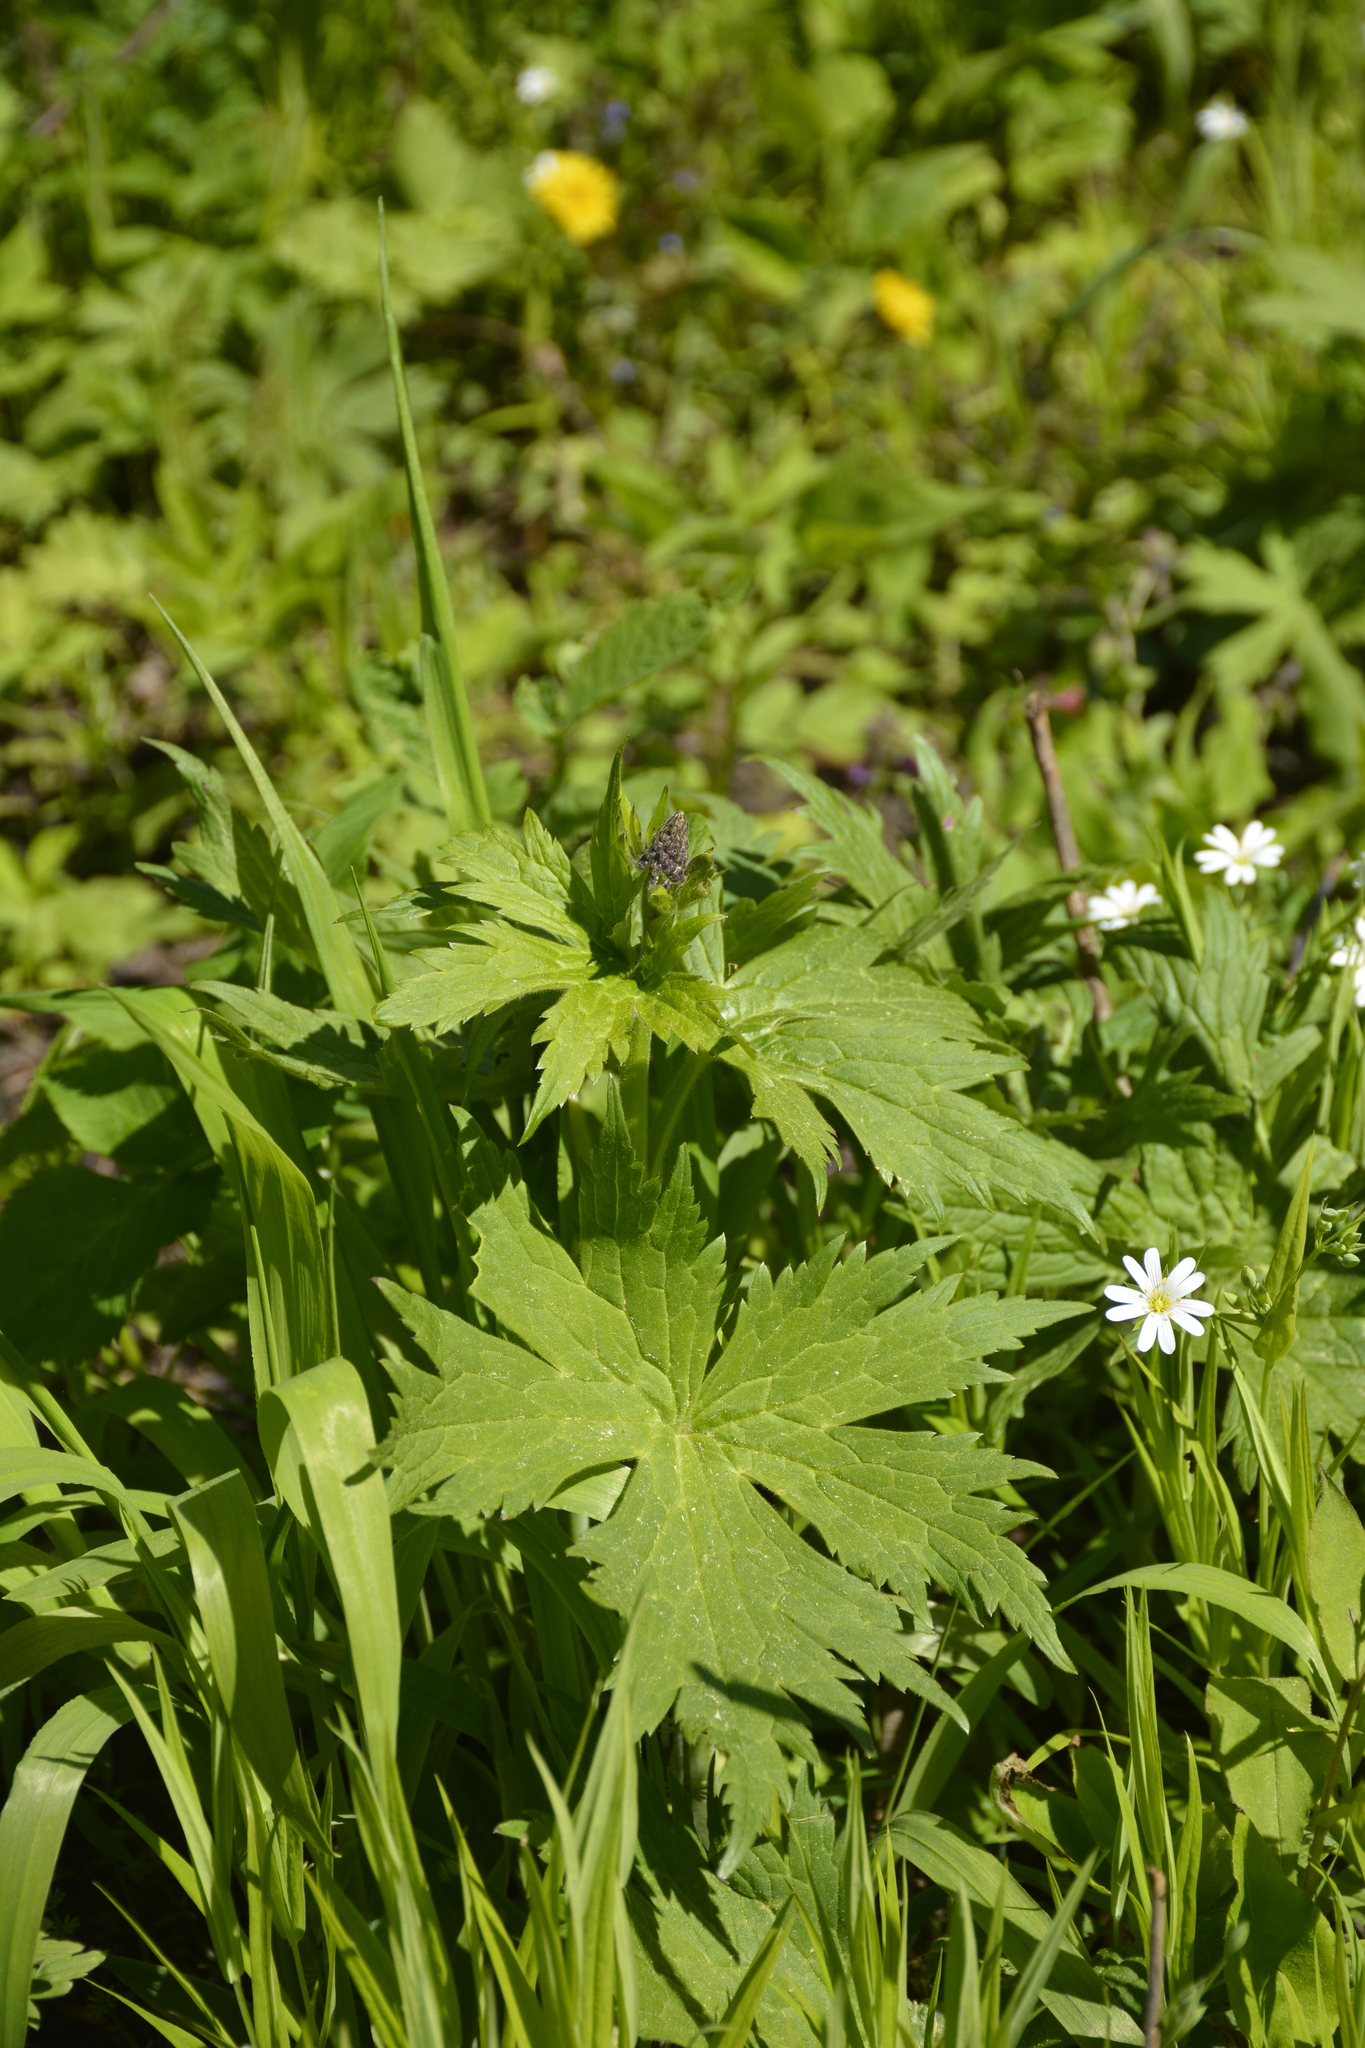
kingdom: Plantae
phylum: Tracheophyta
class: Magnoliopsida
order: Ranunculales
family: Ranunculaceae
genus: Aconitum
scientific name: Aconitum septentrionale
